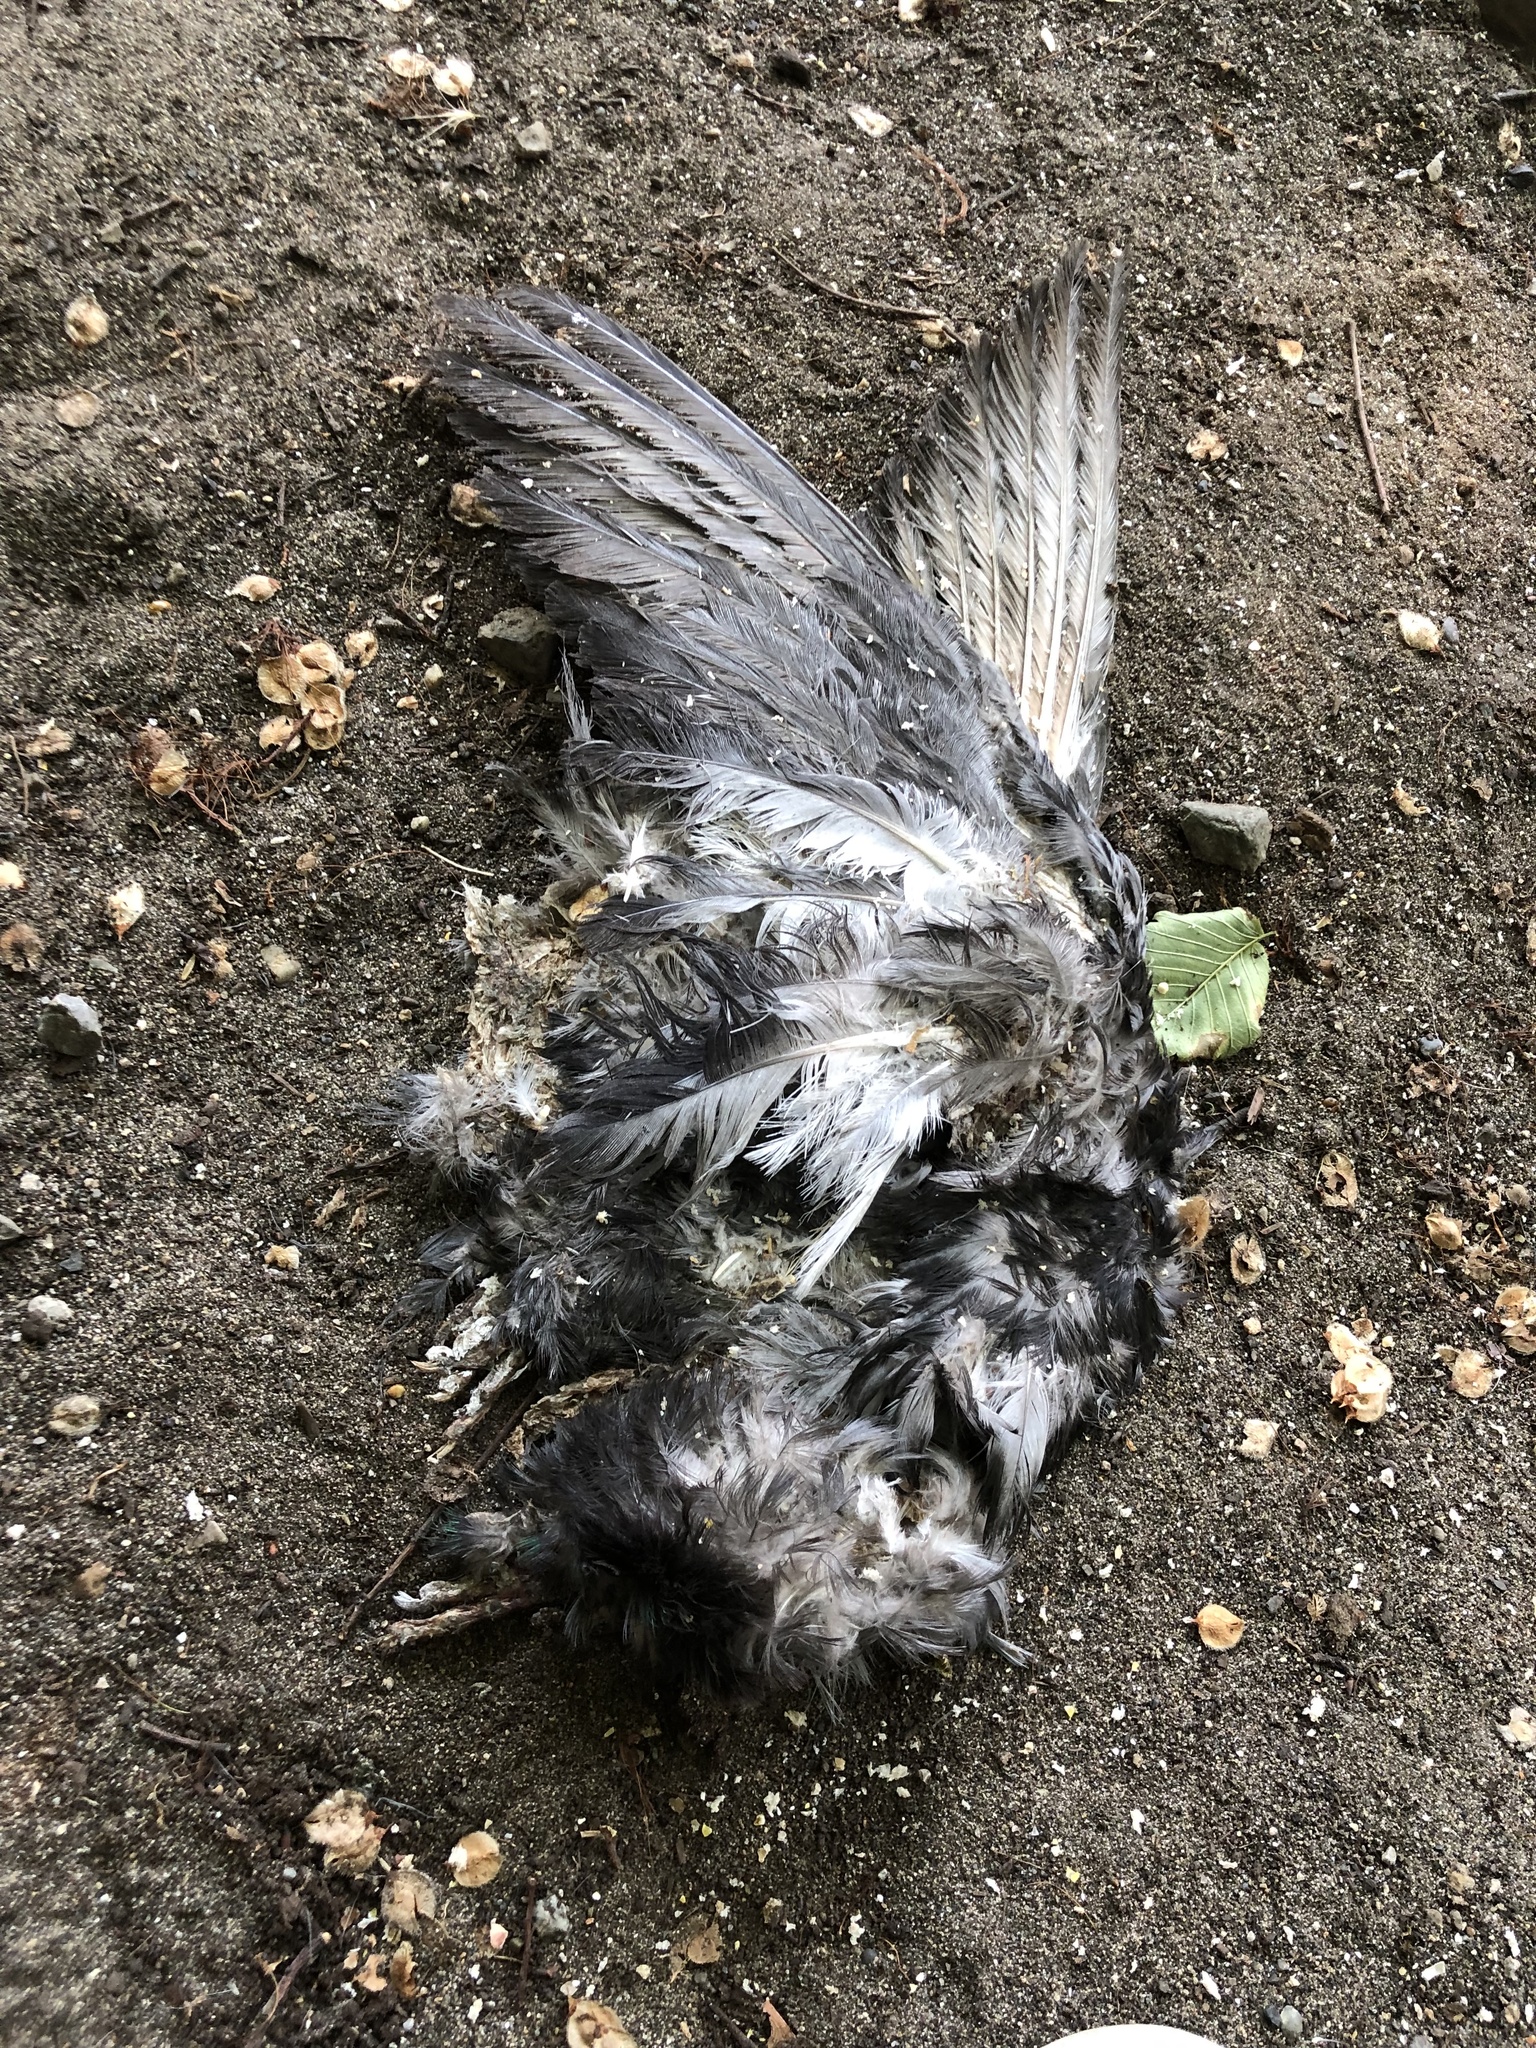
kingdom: Animalia
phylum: Chordata
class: Aves
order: Columbiformes
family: Columbidae
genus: Columba
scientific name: Columba livia
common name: Rock pigeon
